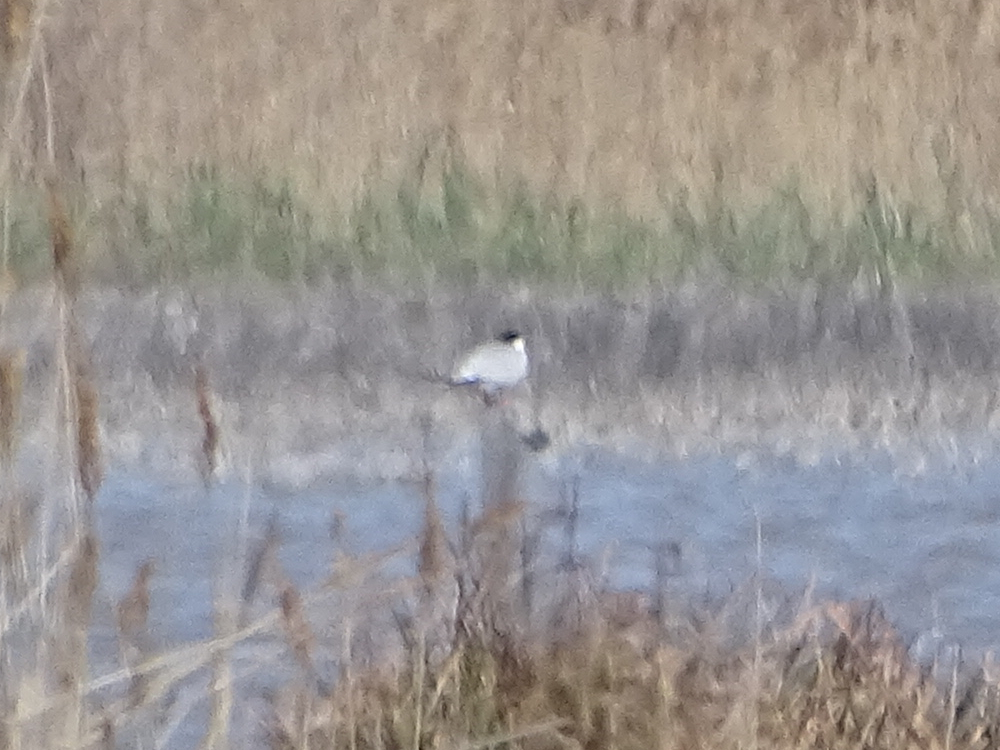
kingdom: Animalia
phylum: Chordata
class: Aves
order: Charadriiformes
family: Laridae
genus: Sterna
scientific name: Sterna hirundo
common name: Common tern
